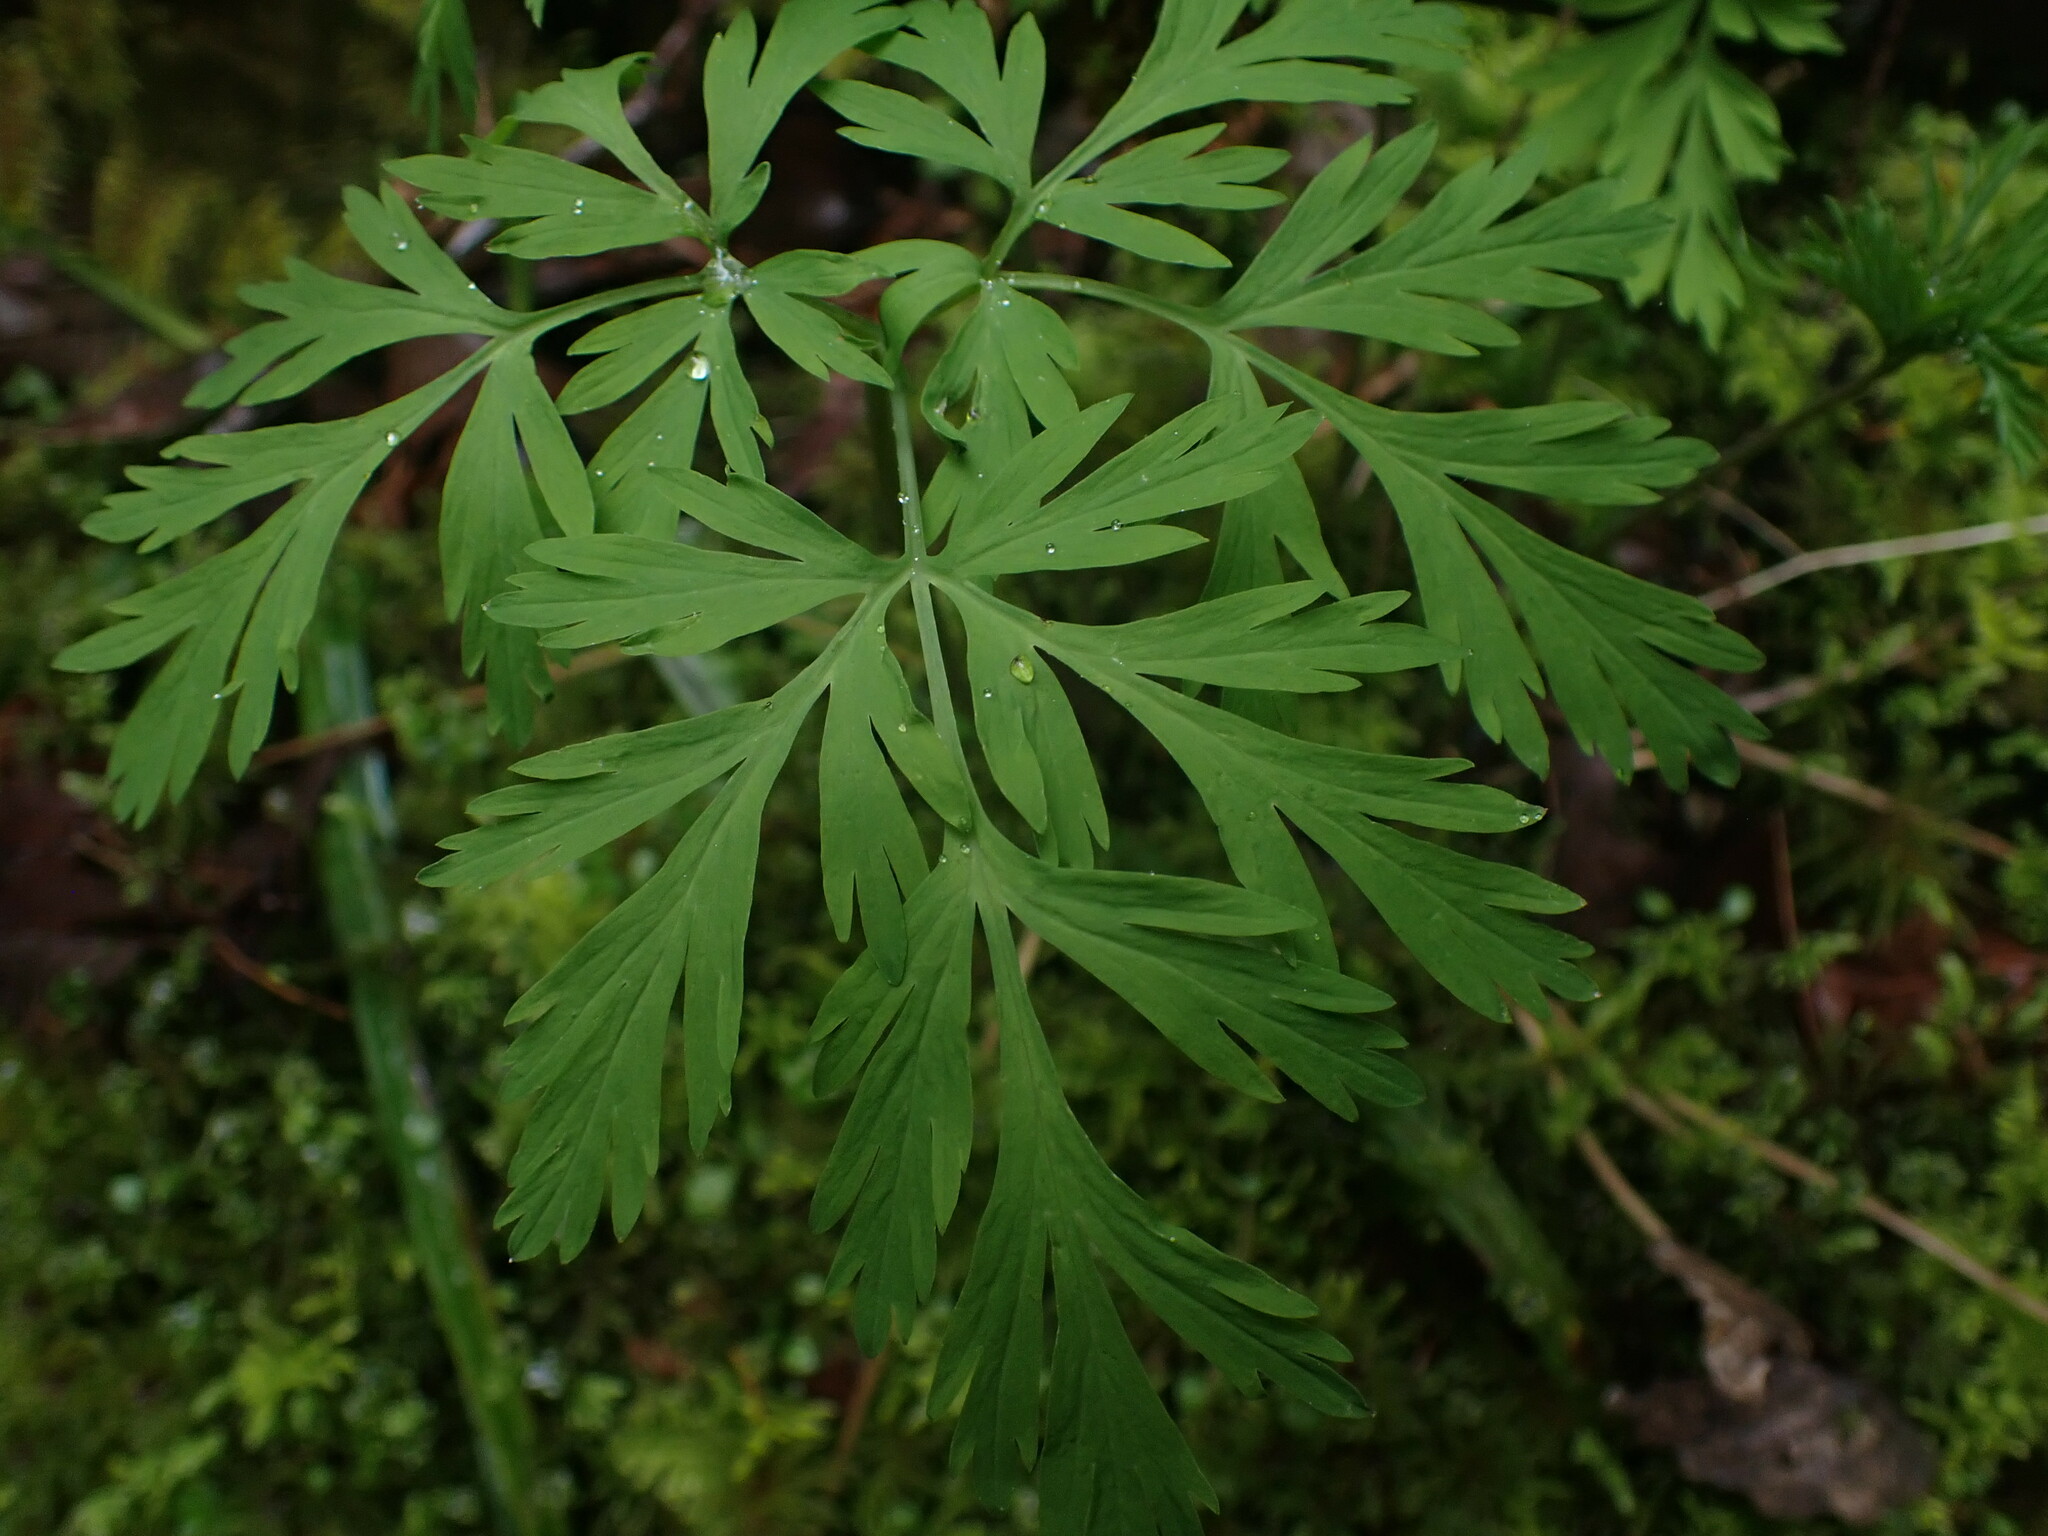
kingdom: Plantae
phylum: Tracheophyta
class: Magnoliopsida
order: Ranunculales
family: Papaveraceae
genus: Dicentra
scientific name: Dicentra formosa
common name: Bleeding-heart
